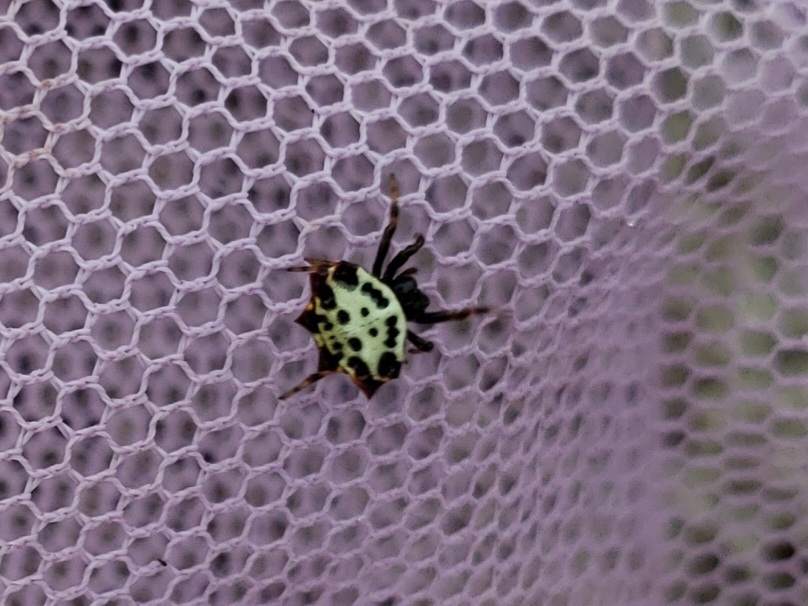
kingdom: Animalia
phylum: Arthropoda
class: Arachnida
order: Araneae
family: Araneidae
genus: Gasteracantha
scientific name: Gasteracantha cancriformis
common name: Orb weavers
